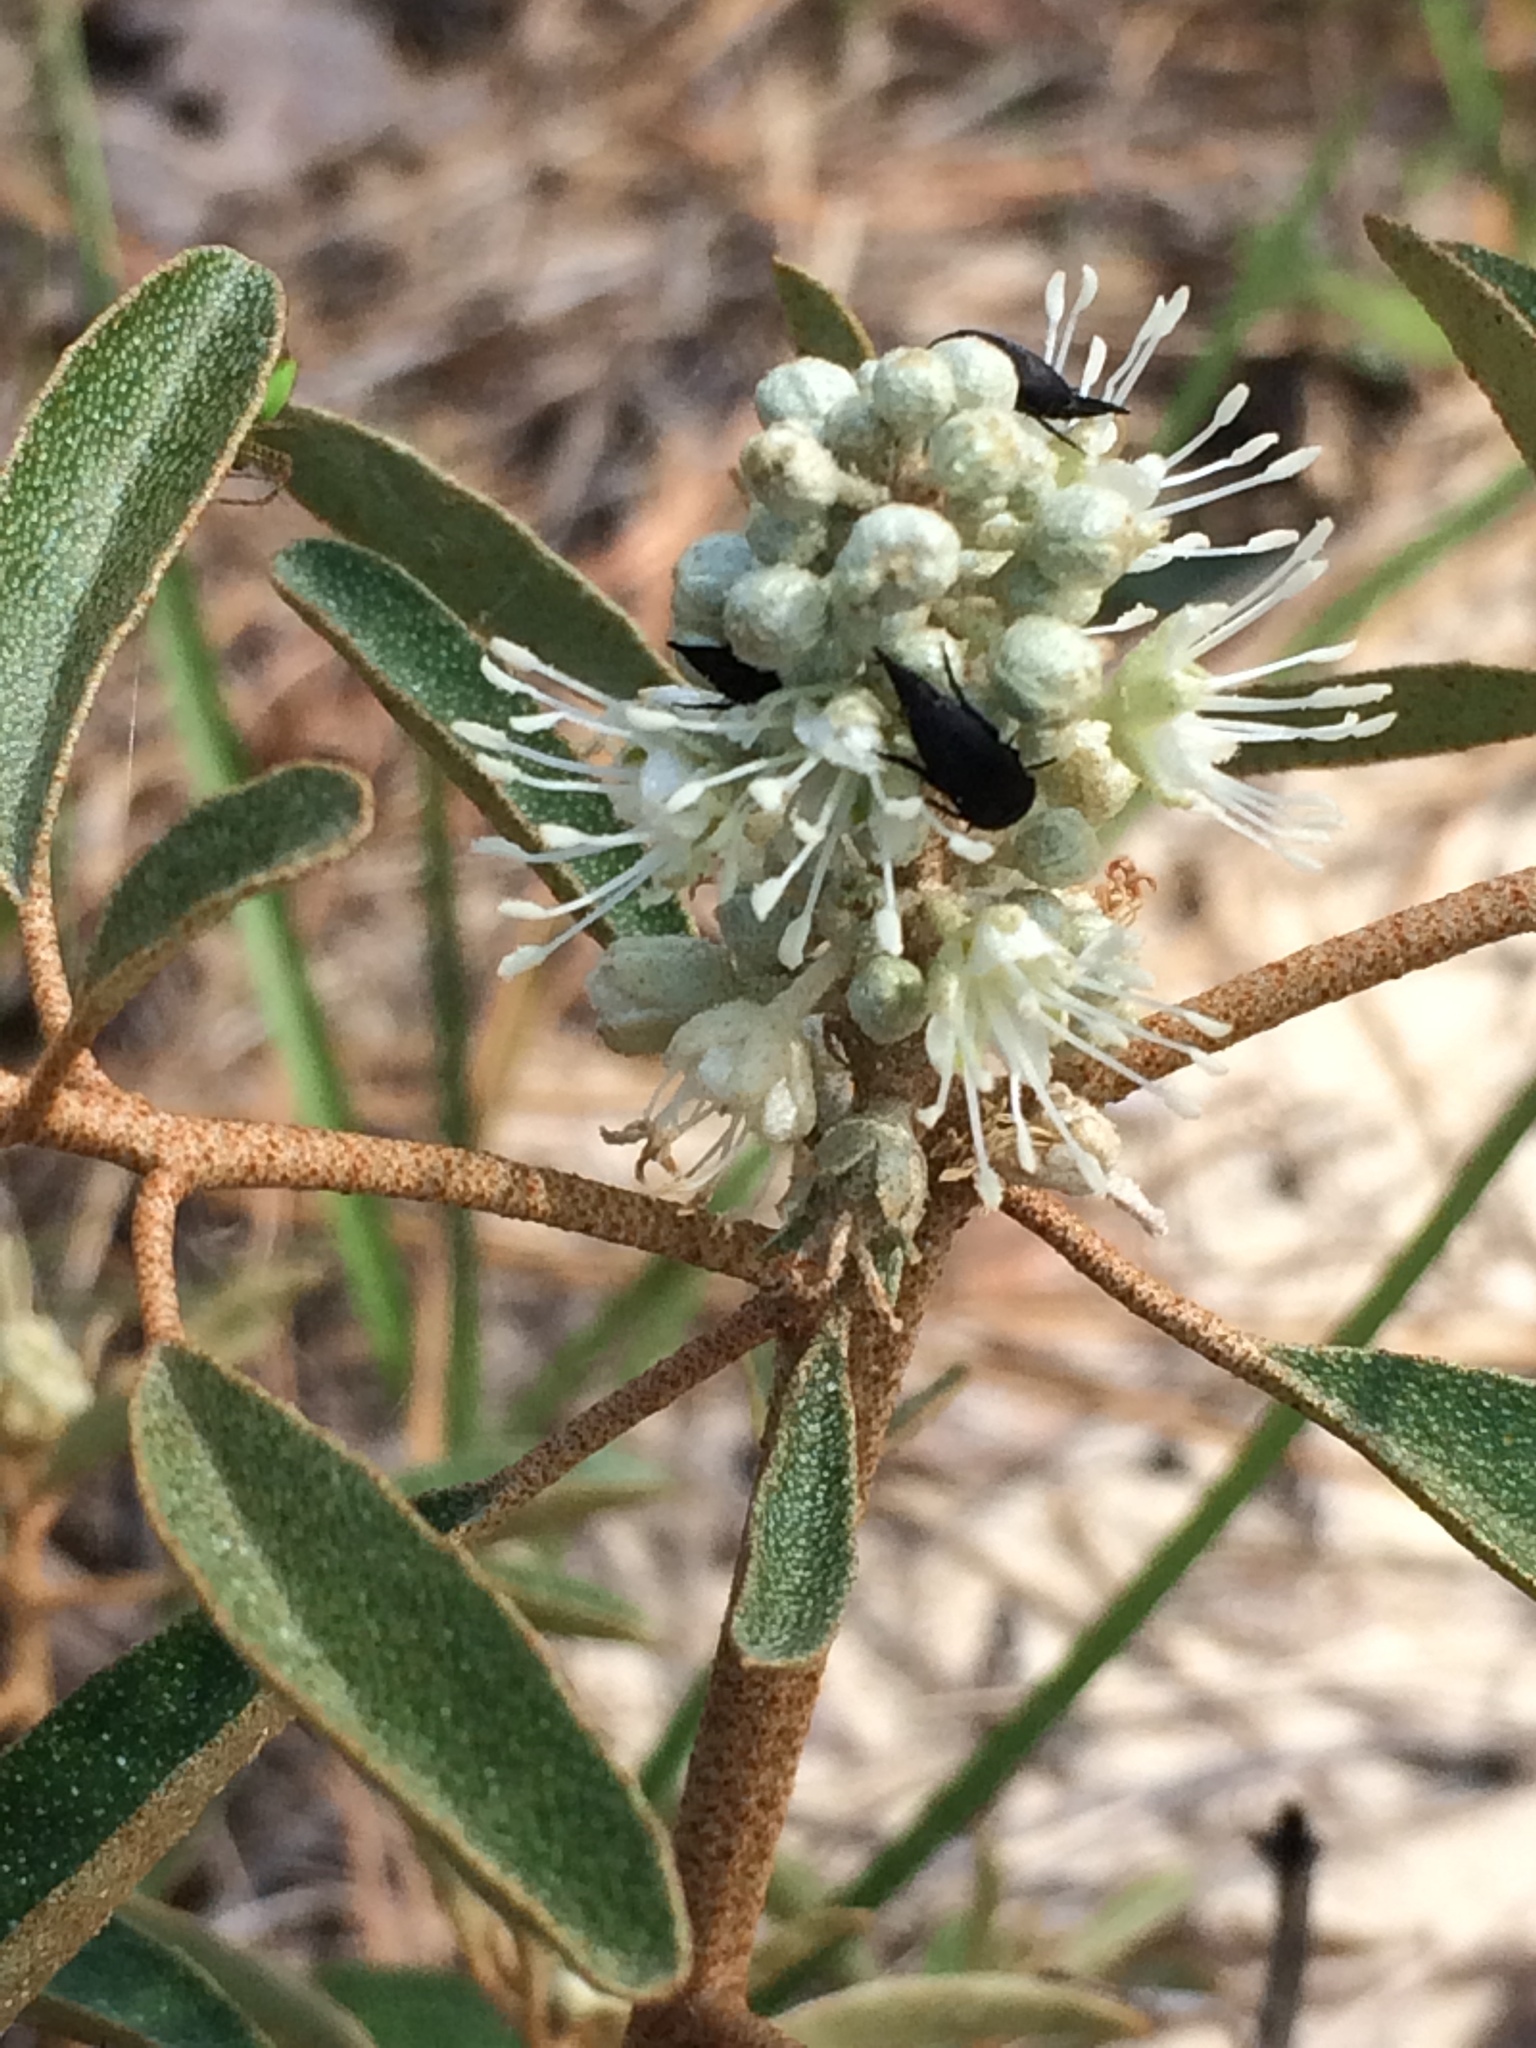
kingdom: Plantae
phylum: Tracheophyta
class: Magnoliopsida
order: Malpighiales
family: Euphorbiaceae
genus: Croton
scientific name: Croton argyranthemus
